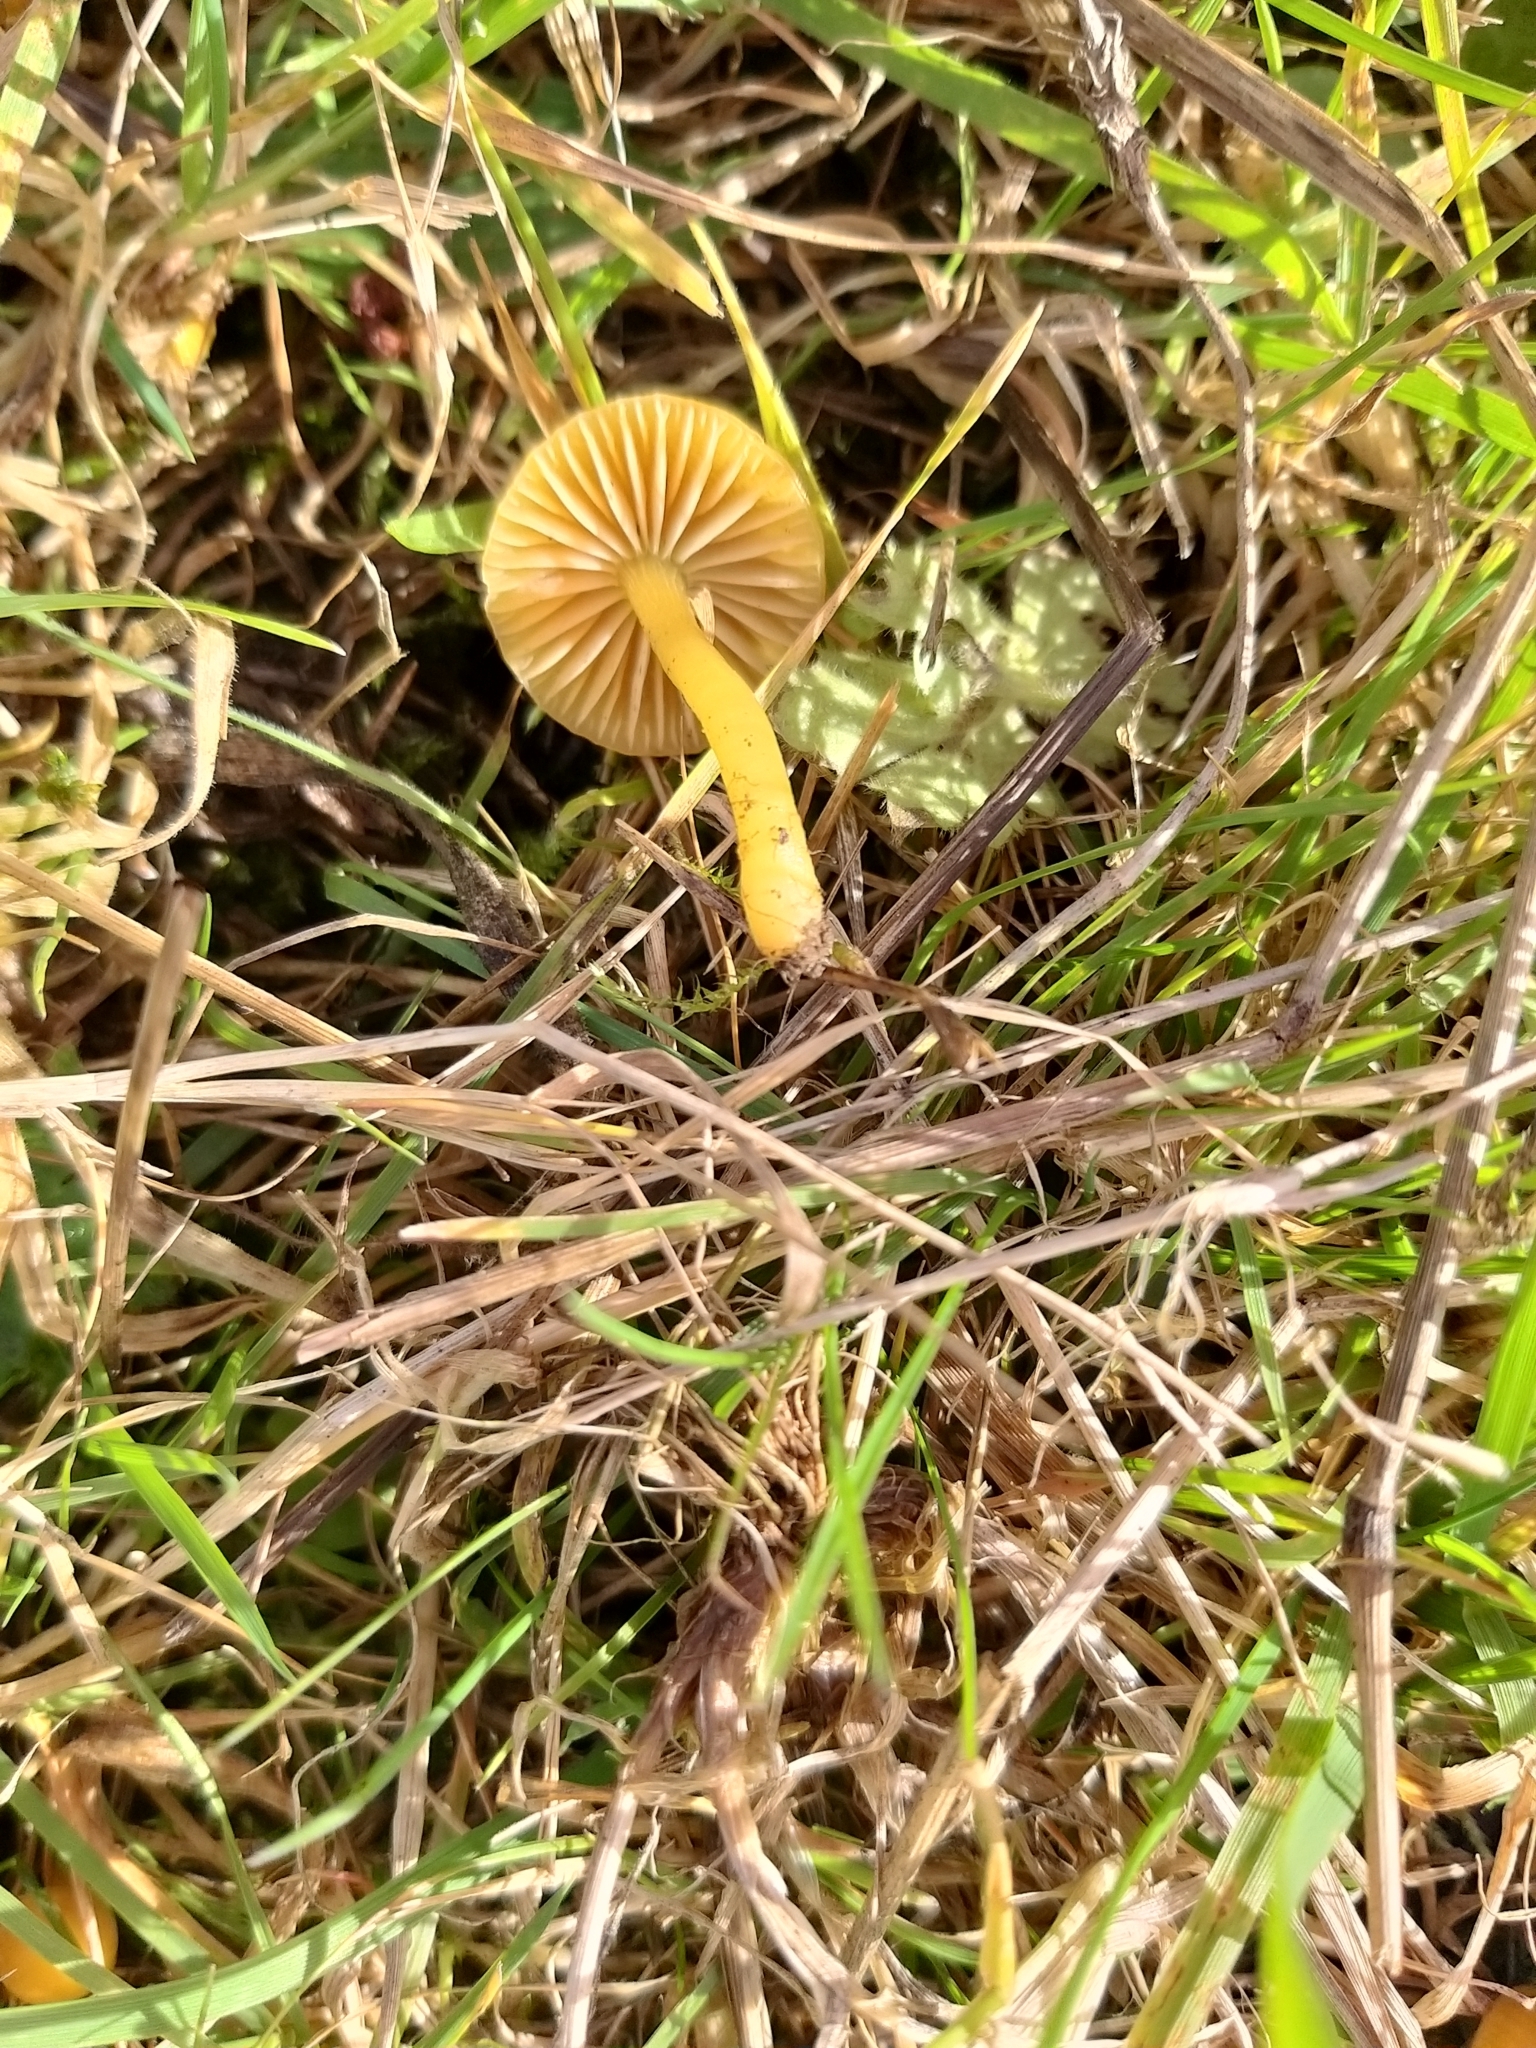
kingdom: Fungi
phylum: Basidiomycota
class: Agaricomycetes
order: Agaricales
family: Hygrophoraceae
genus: Gliophorus
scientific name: Gliophorus psittacinus
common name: Parrot wax-cap
